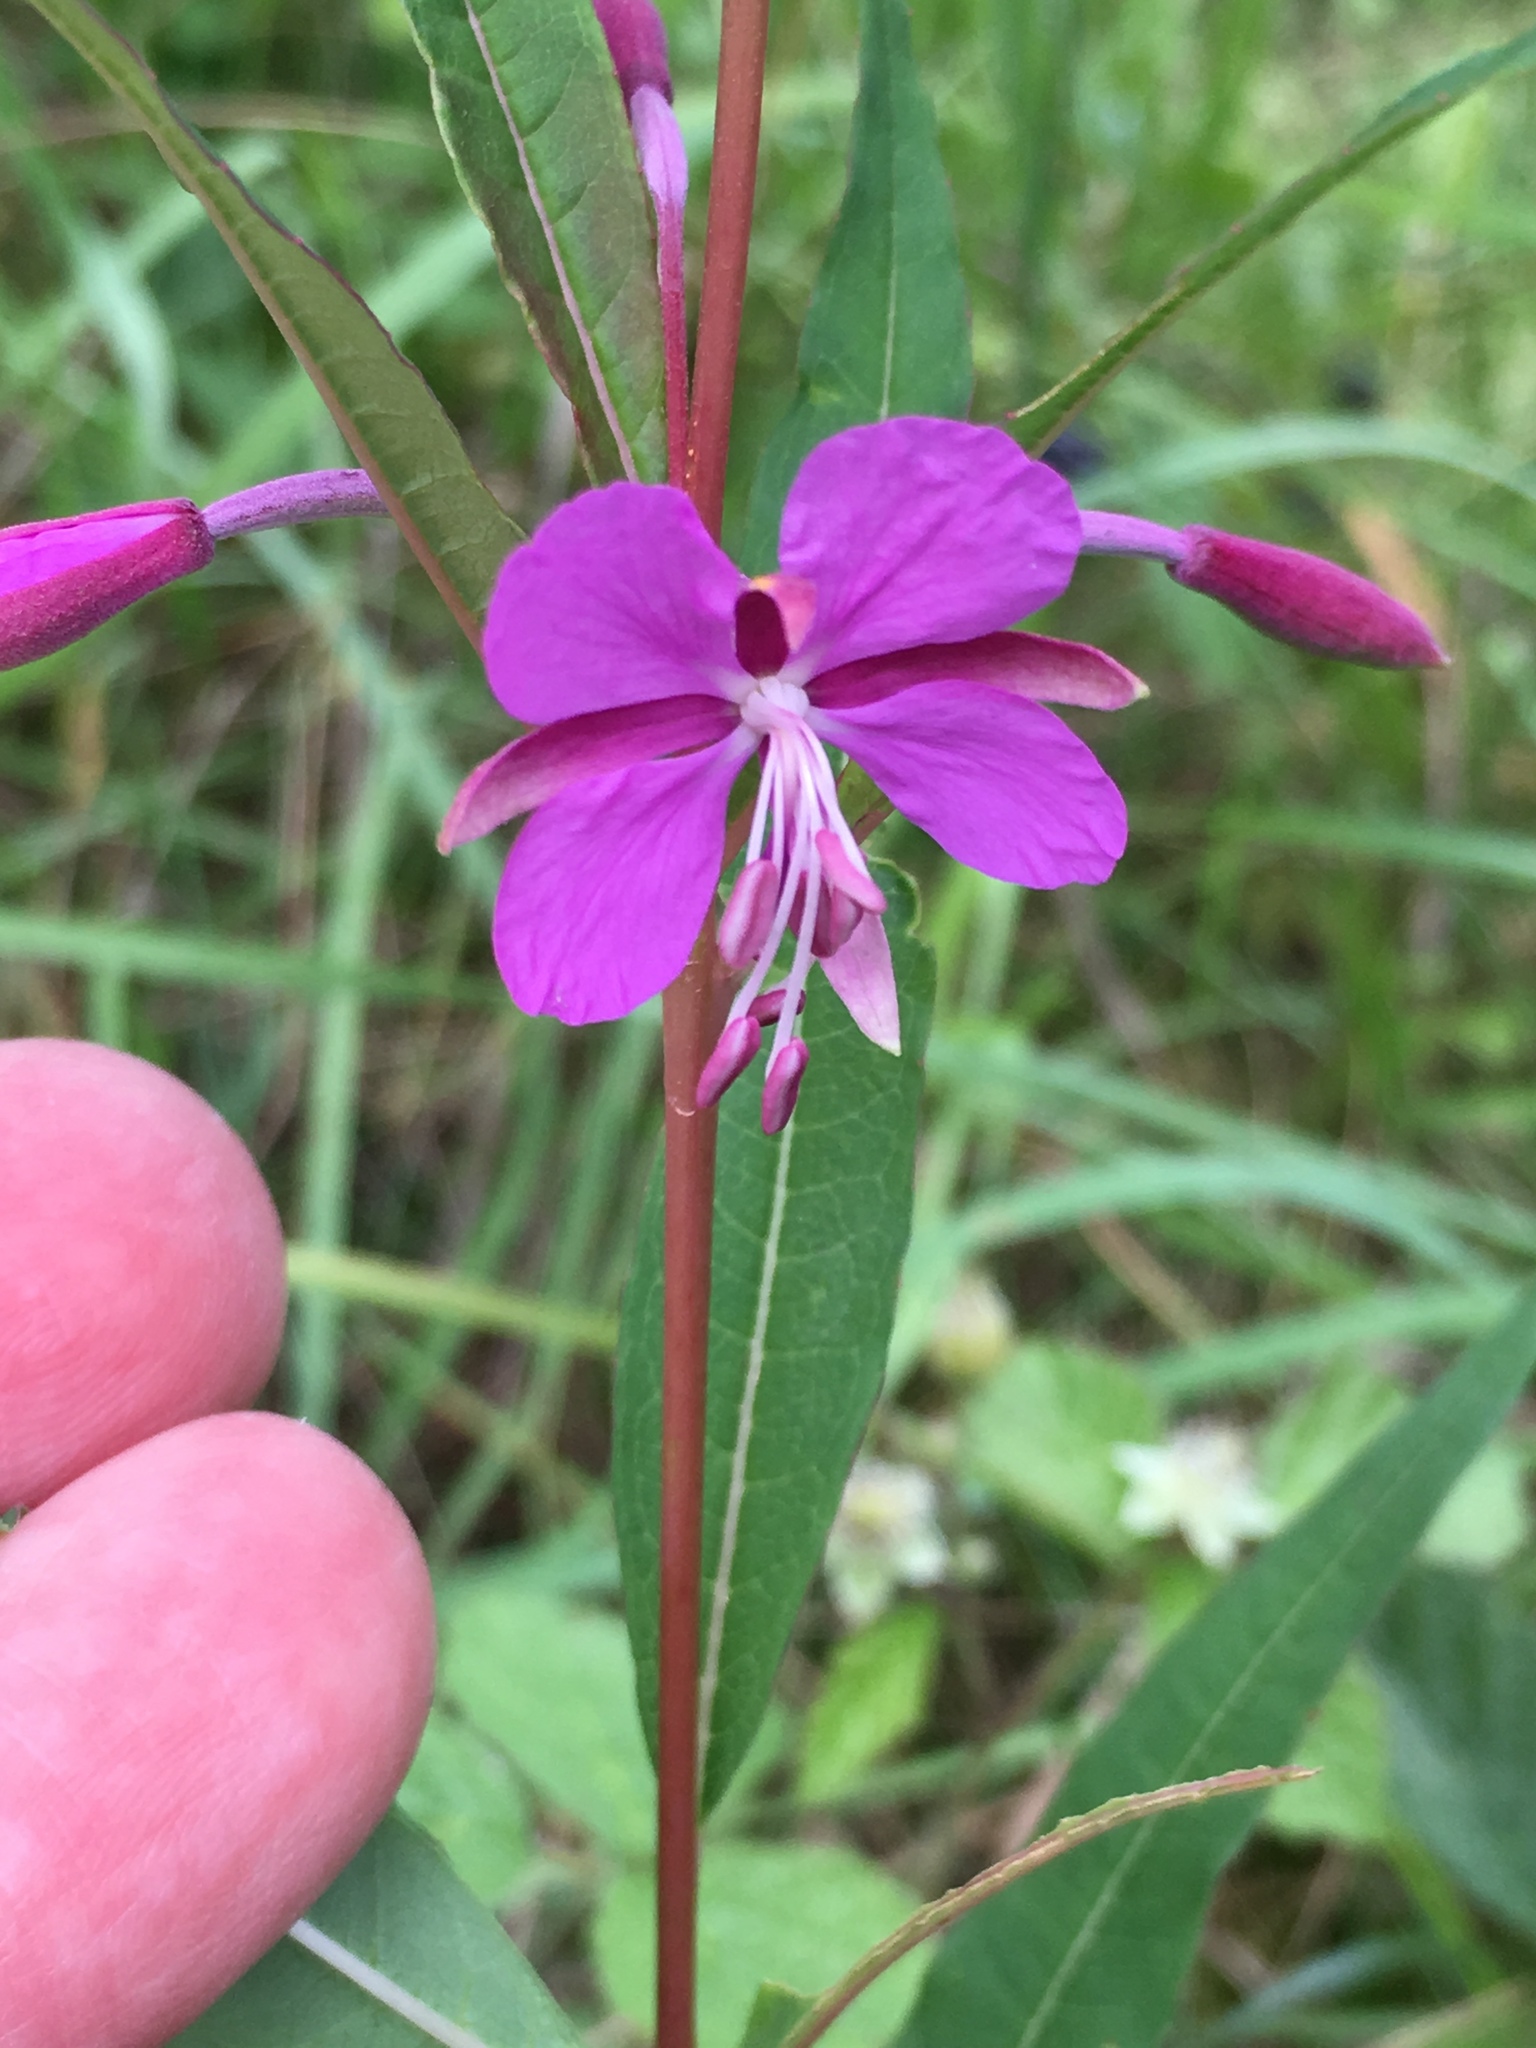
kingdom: Plantae
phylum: Tracheophyta
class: Magnoliopsida
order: Myrtales
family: Onagraceae
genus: Chamaenerion
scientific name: Chamaenerion angustifolium
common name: Fireweed
